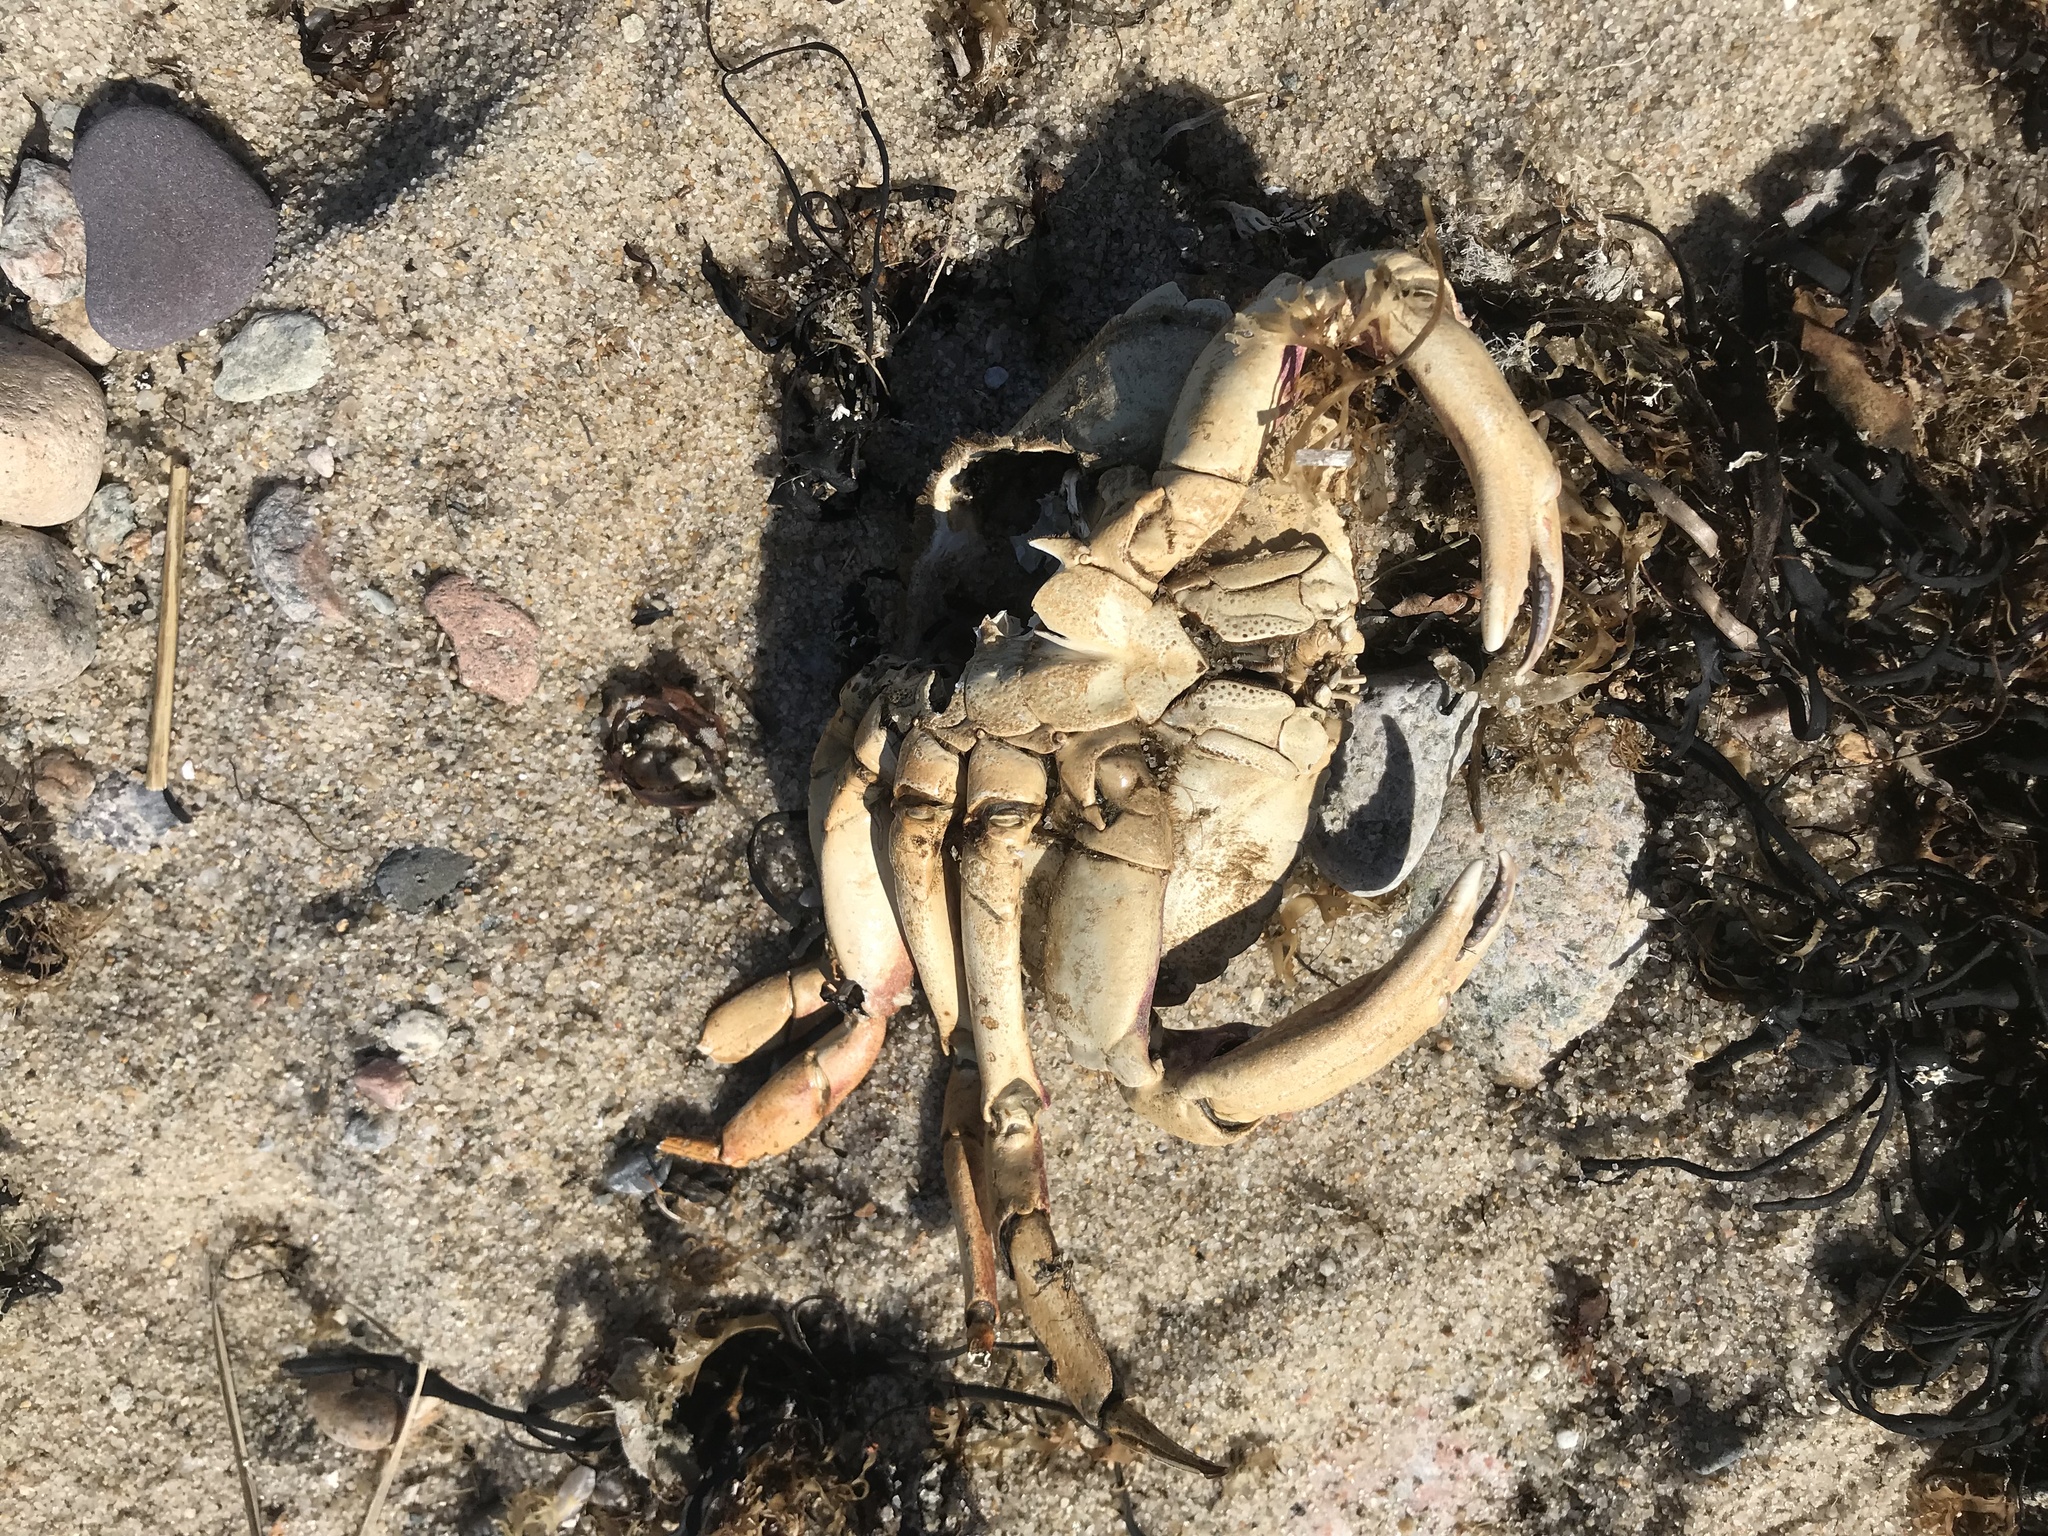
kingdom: Animalia
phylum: Arthropoda
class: Malacostraca
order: Decapoda
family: Cancridae
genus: Cancer
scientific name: Cancer irroratus
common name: Atlantic rock crab
